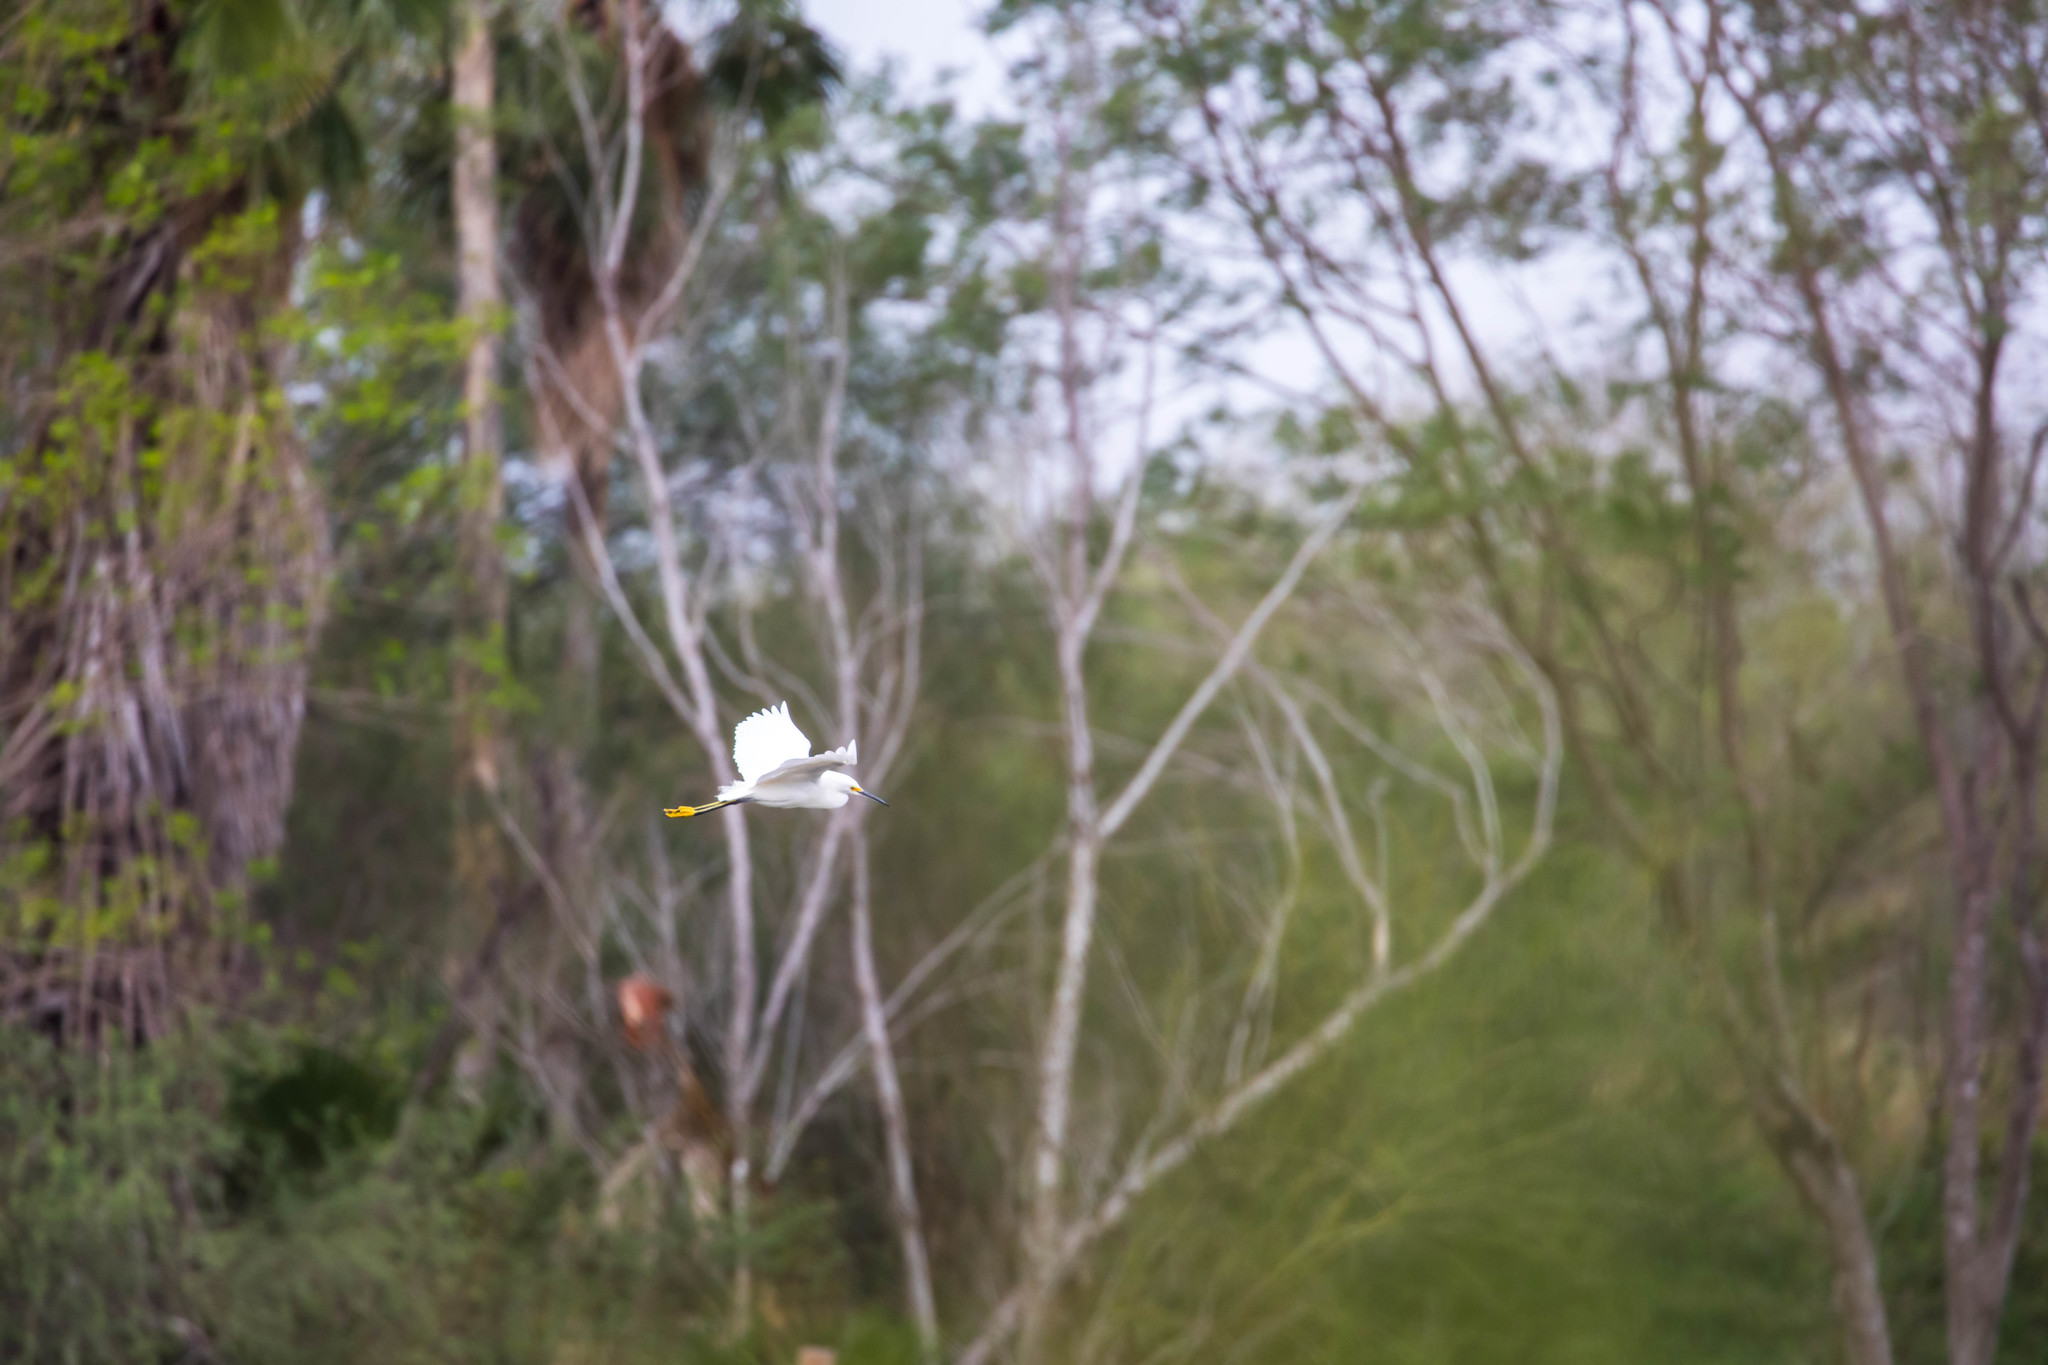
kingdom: Animalia
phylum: Chordata
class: Aves
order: Pelecaniformes
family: Ardeidae
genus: Egretta
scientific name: Egretta thula
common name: Snowy egret
